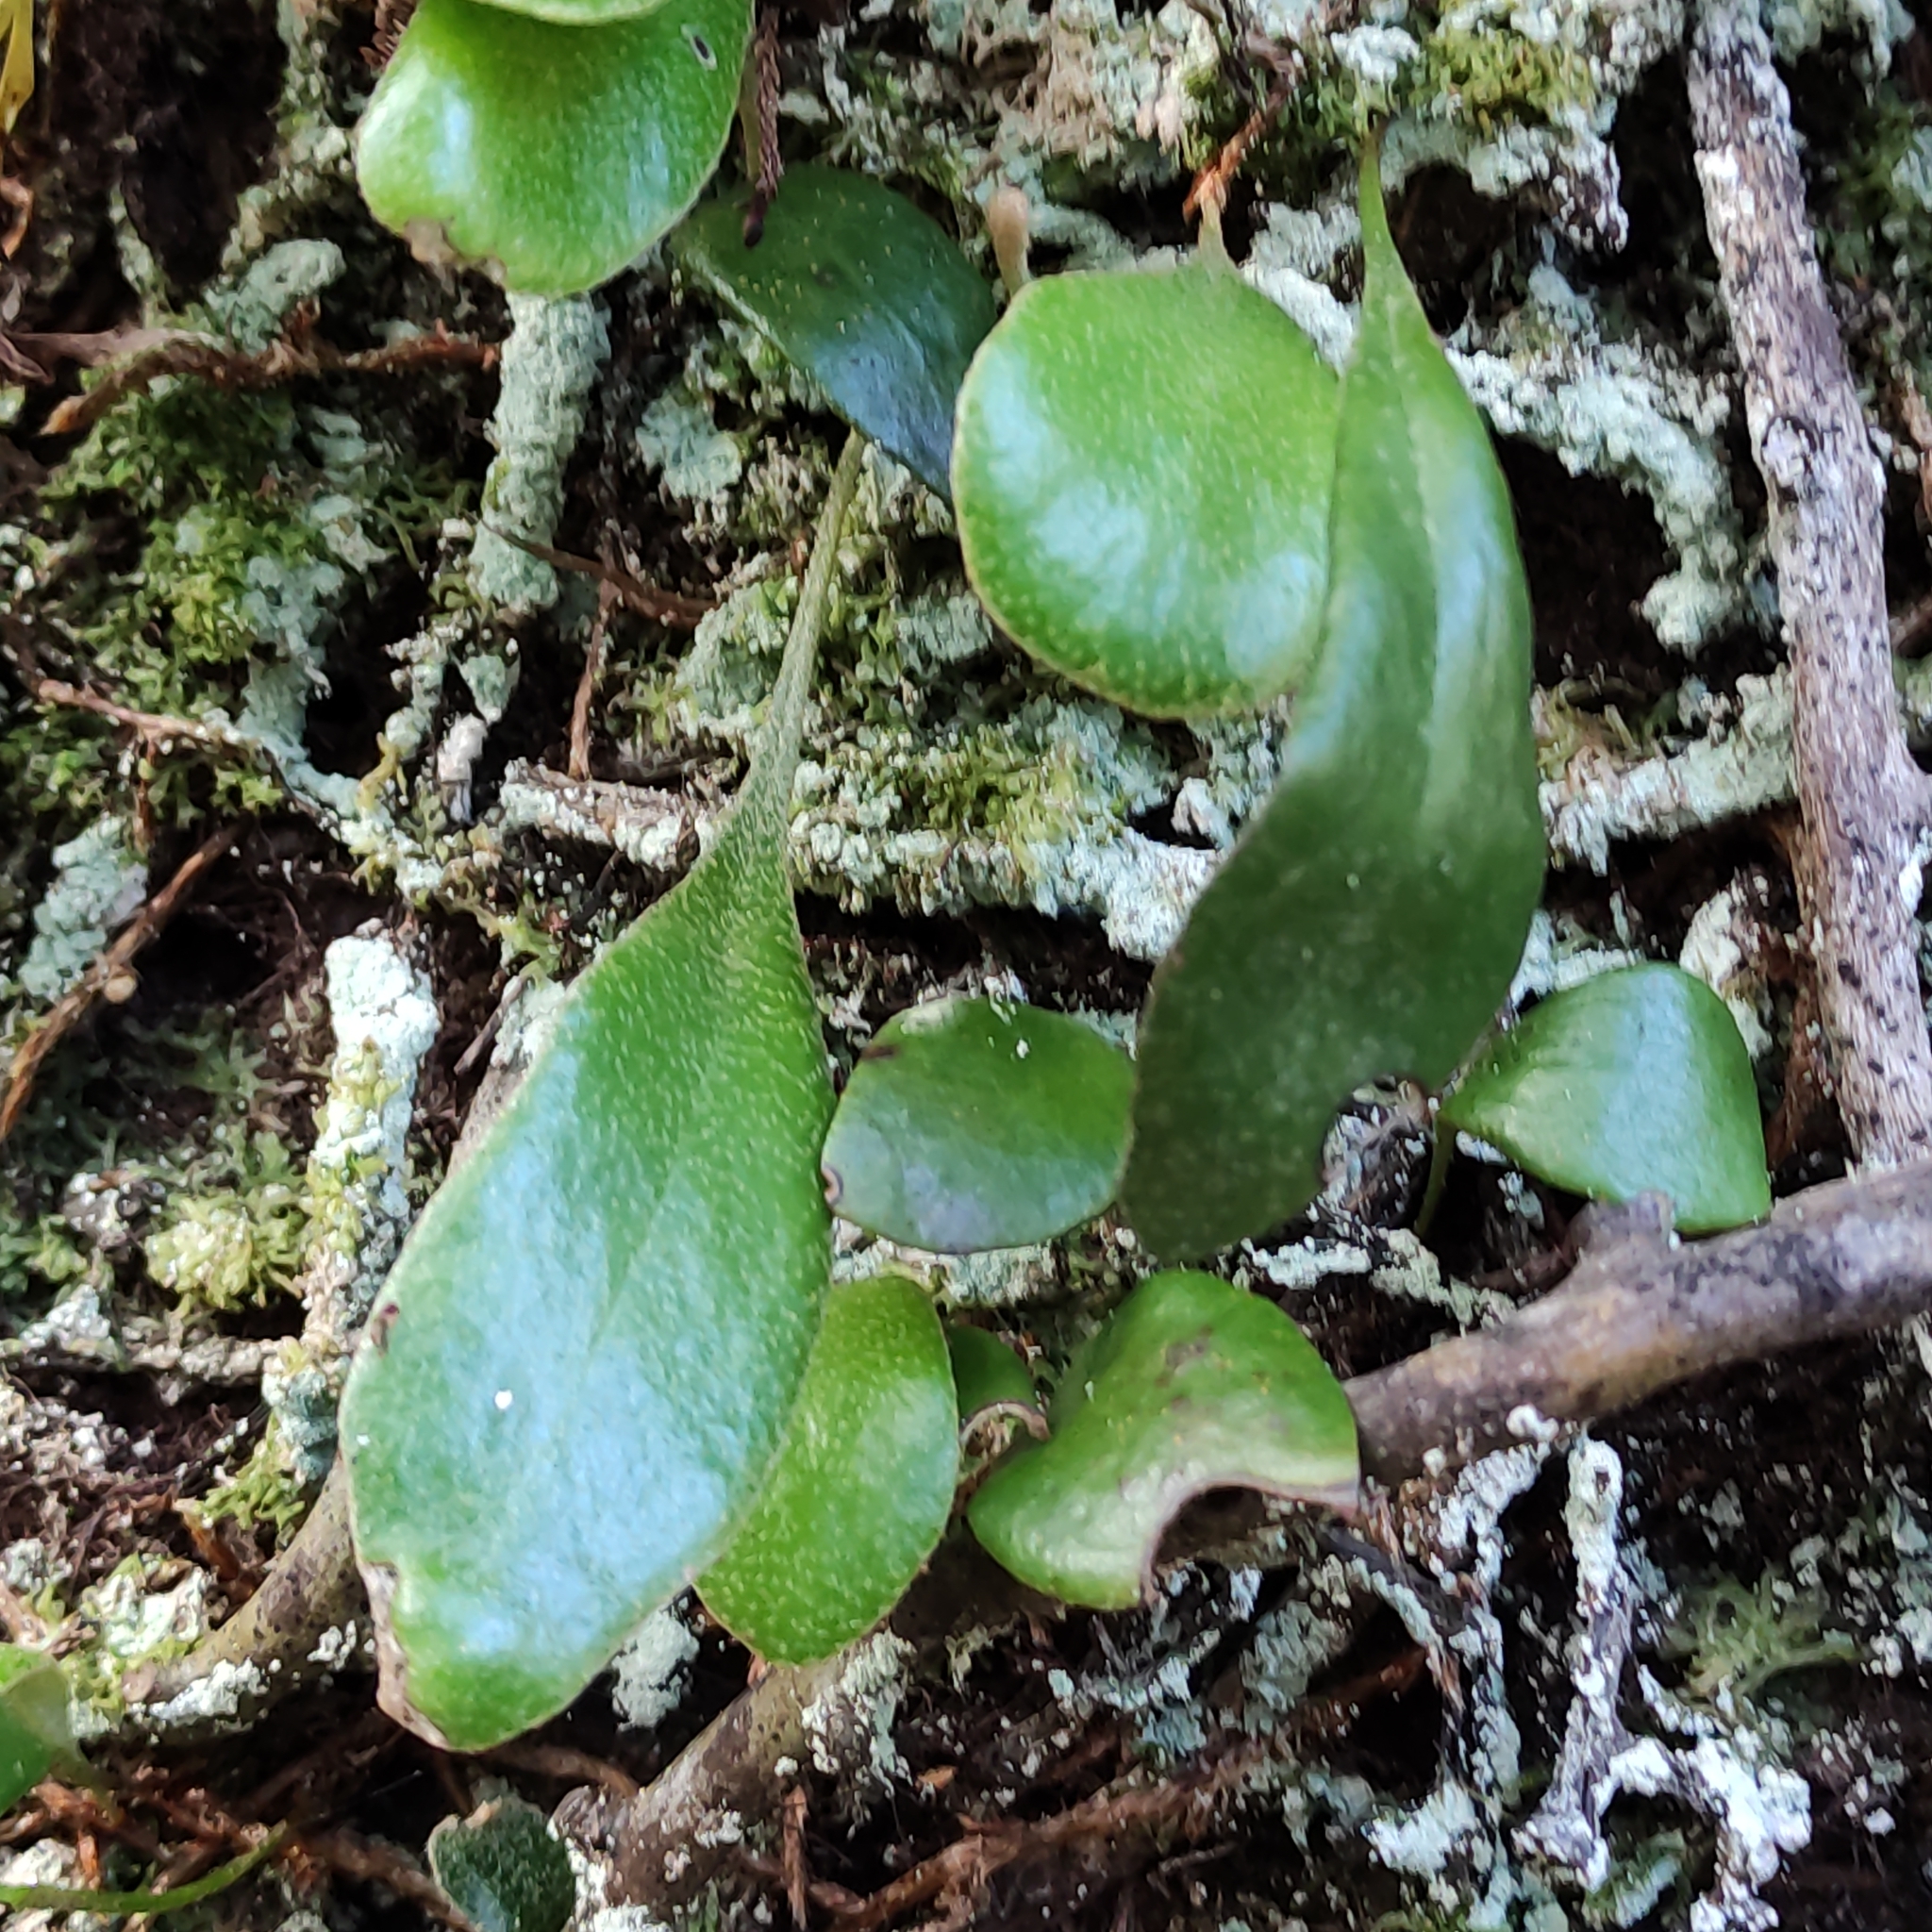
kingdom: Plantae
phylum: Tracheophyta
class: Polypodiopsida
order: Polypodiales
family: Polypodiaceae
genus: Pyrrosia
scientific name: Pyrrosia eleagnifolia
